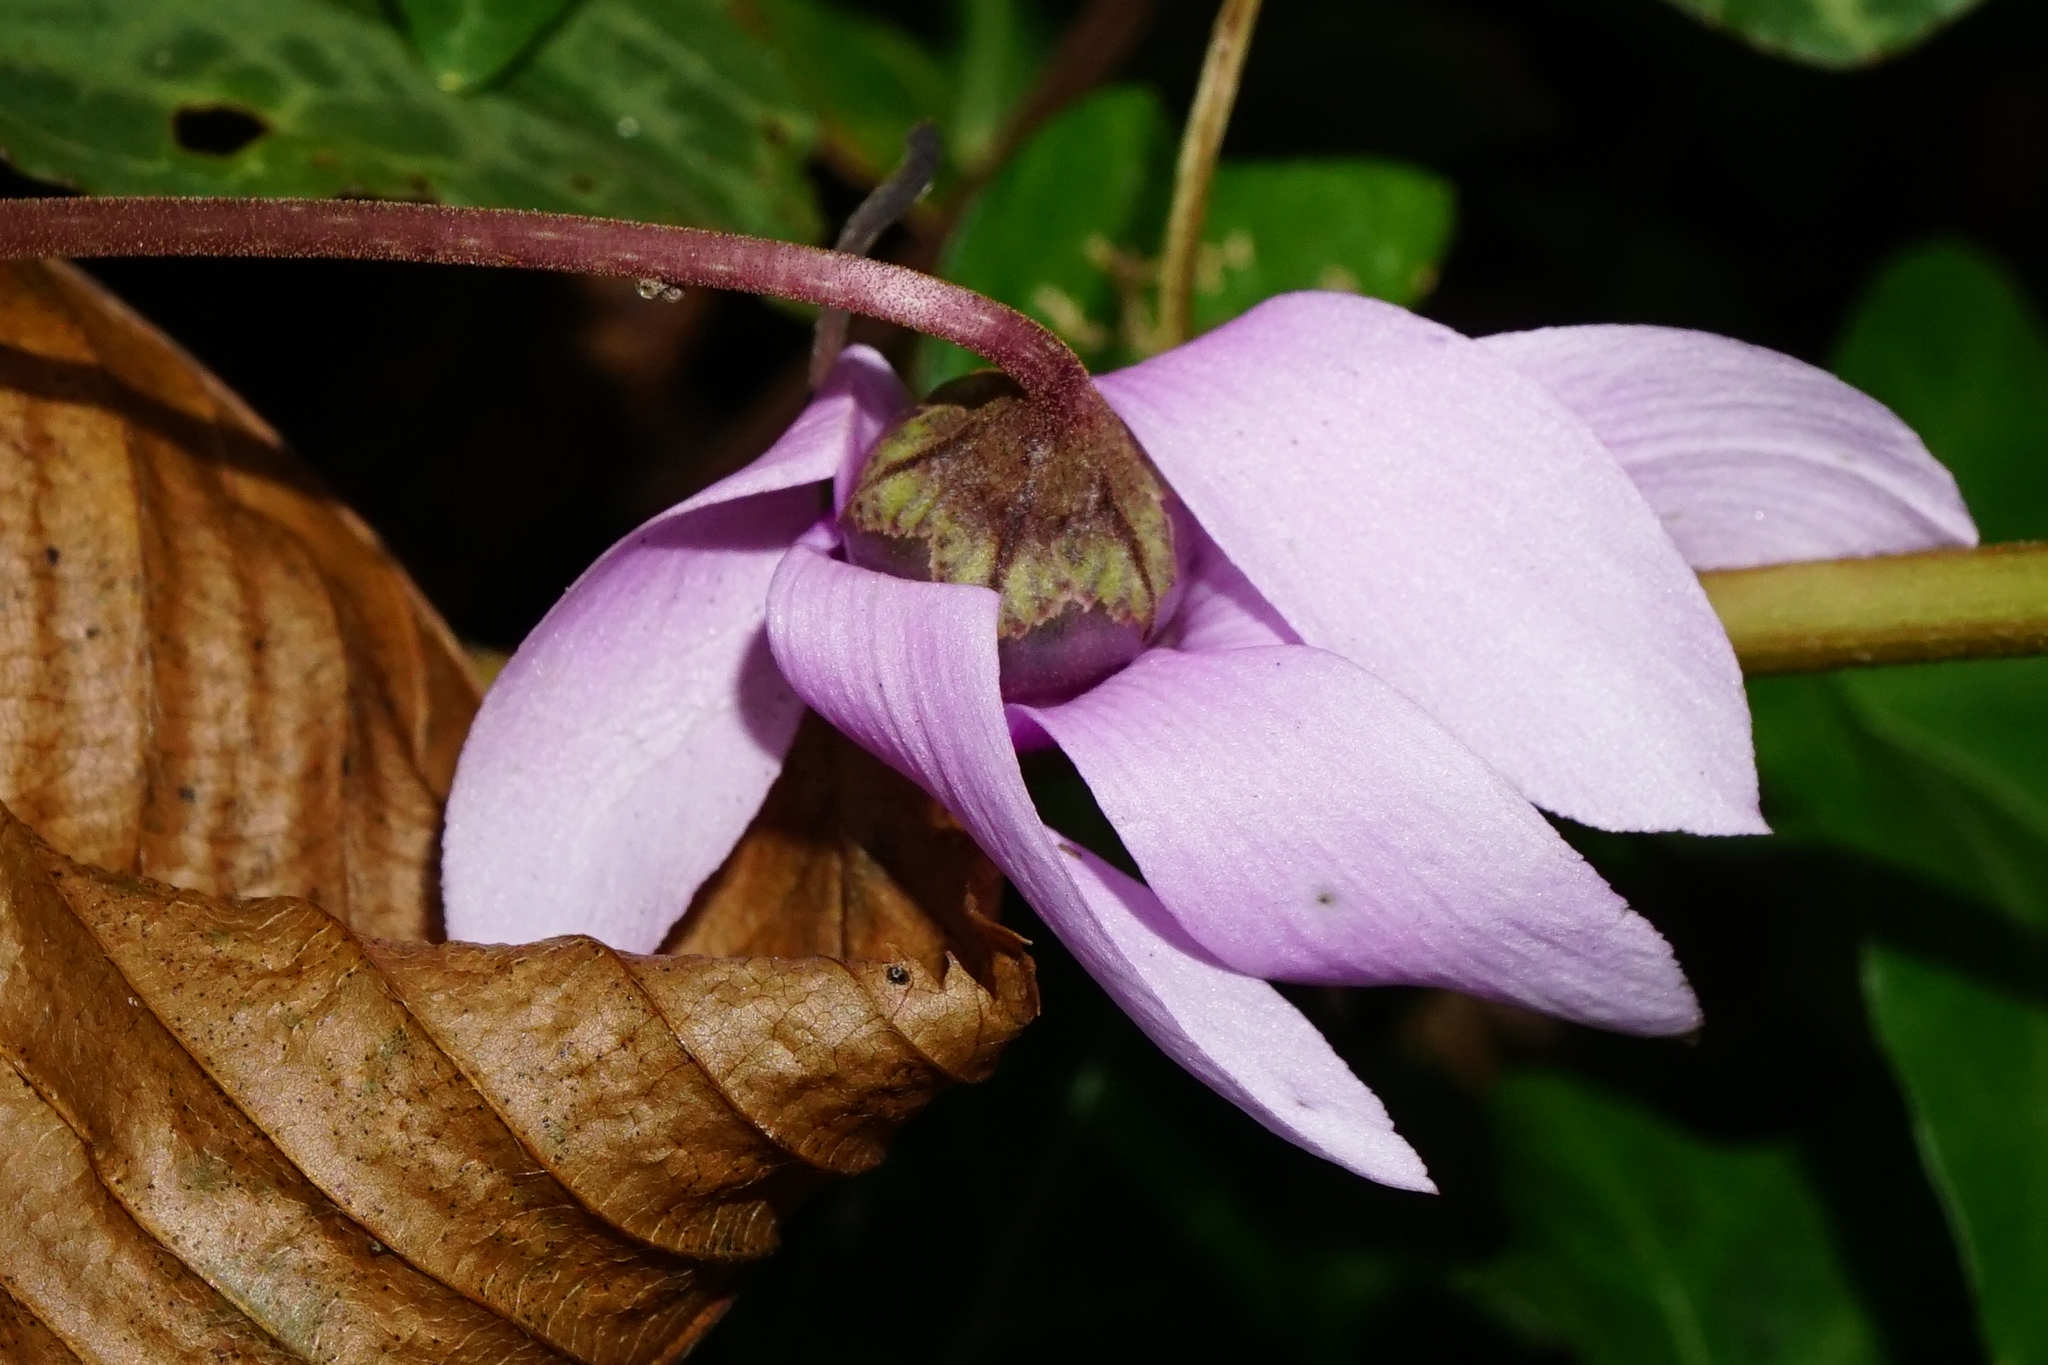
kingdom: Plantae
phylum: Tracheophyta
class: Magnoliopsida
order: Ericales
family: Primulaceae
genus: Cyclamen
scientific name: Cyclamen purpurascens
